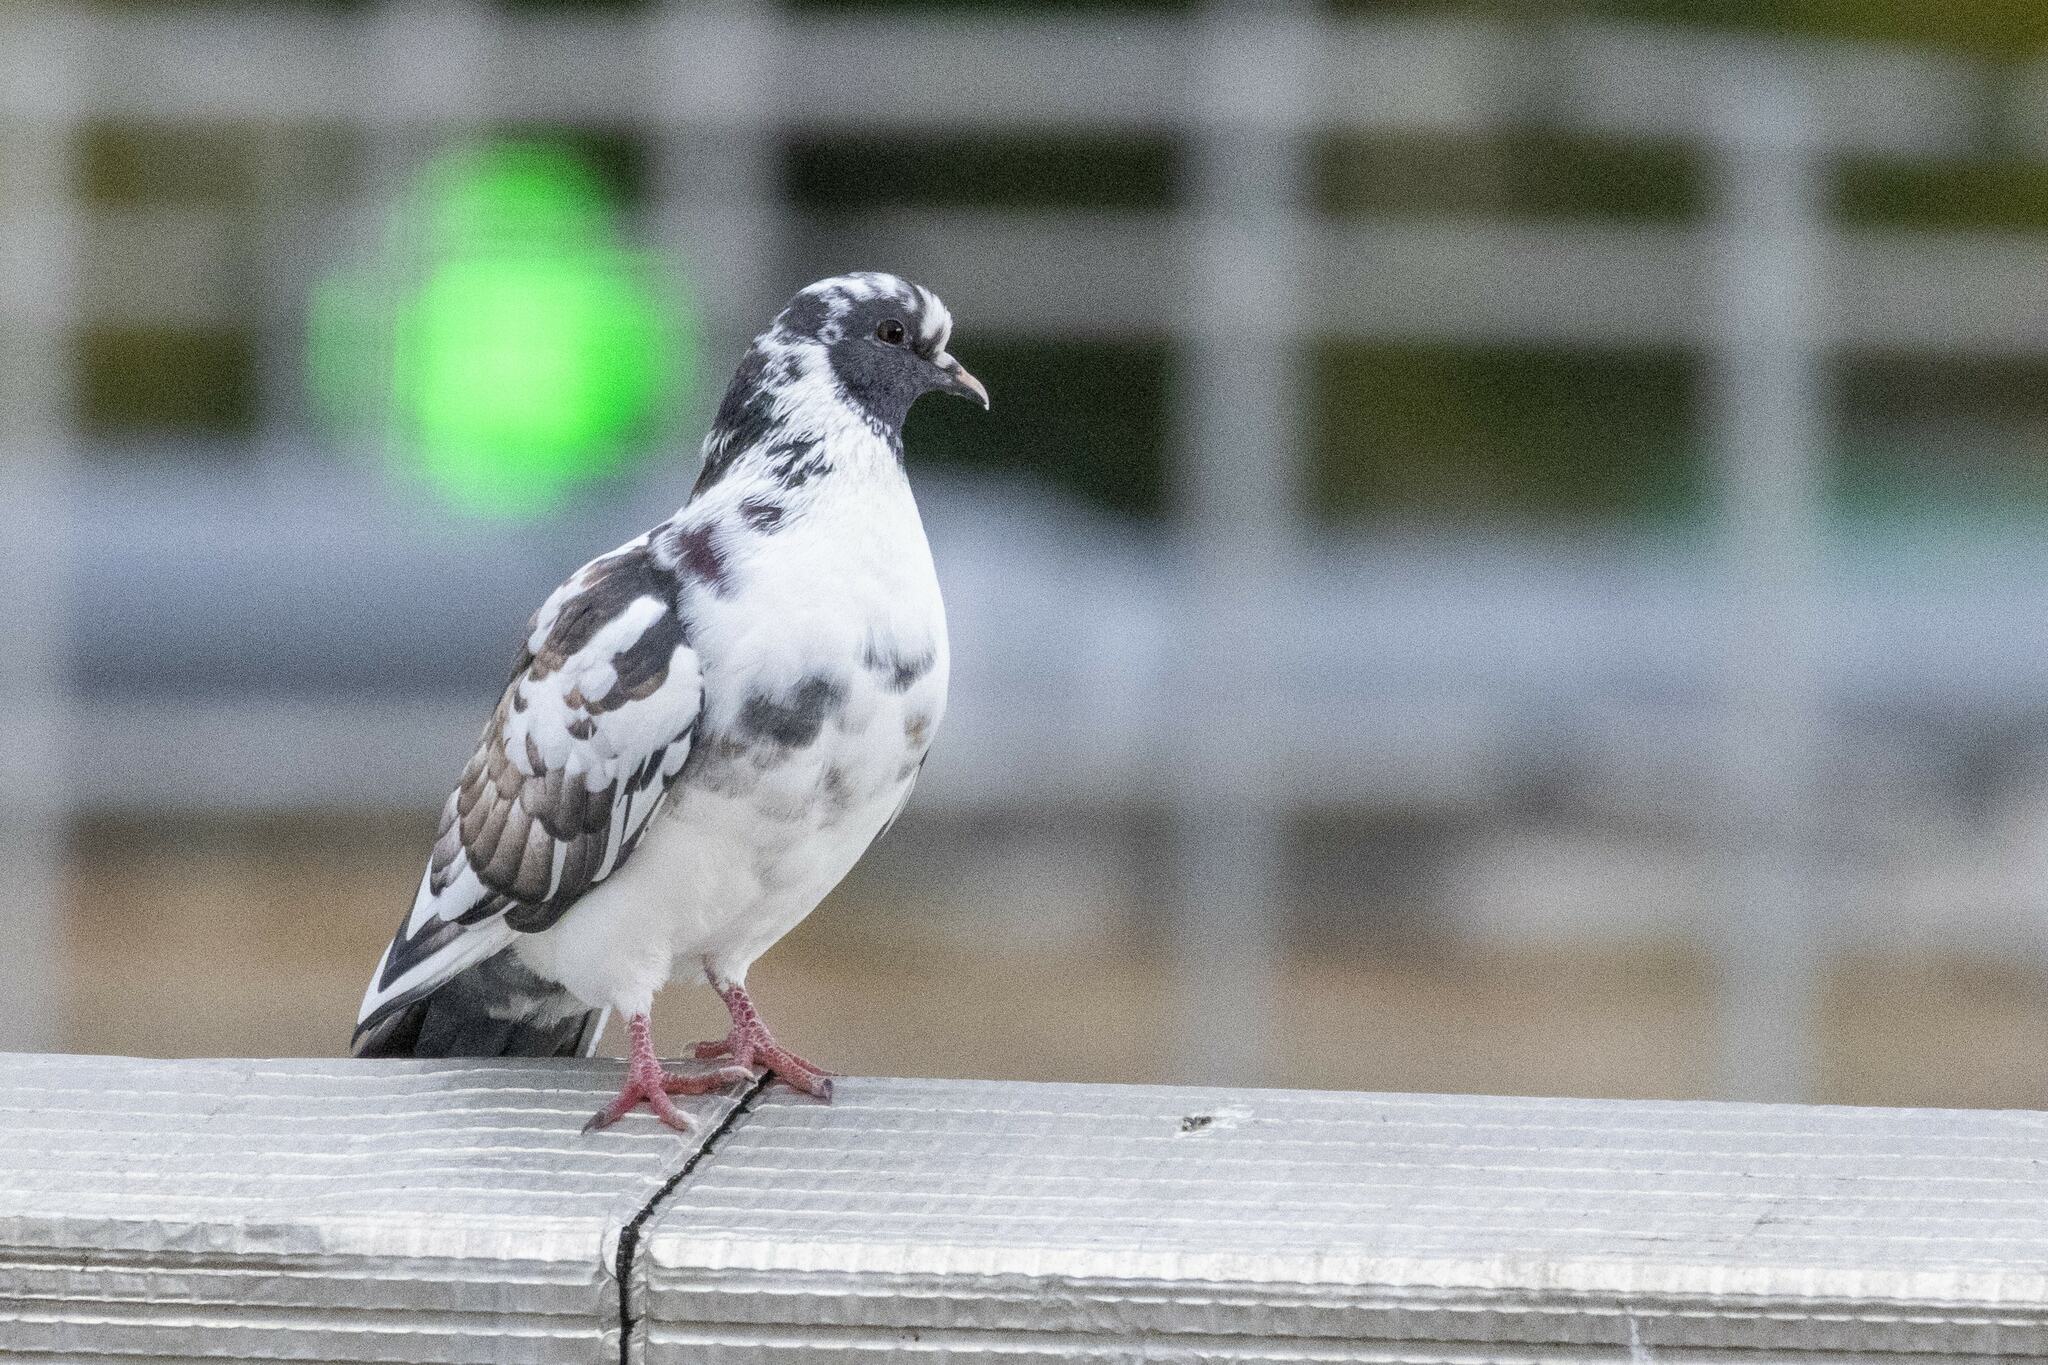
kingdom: Animalia
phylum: Chordata
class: Aves
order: Columbiformes
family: Columbidae
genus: Columba
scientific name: Columba livia
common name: Rock pigeon
